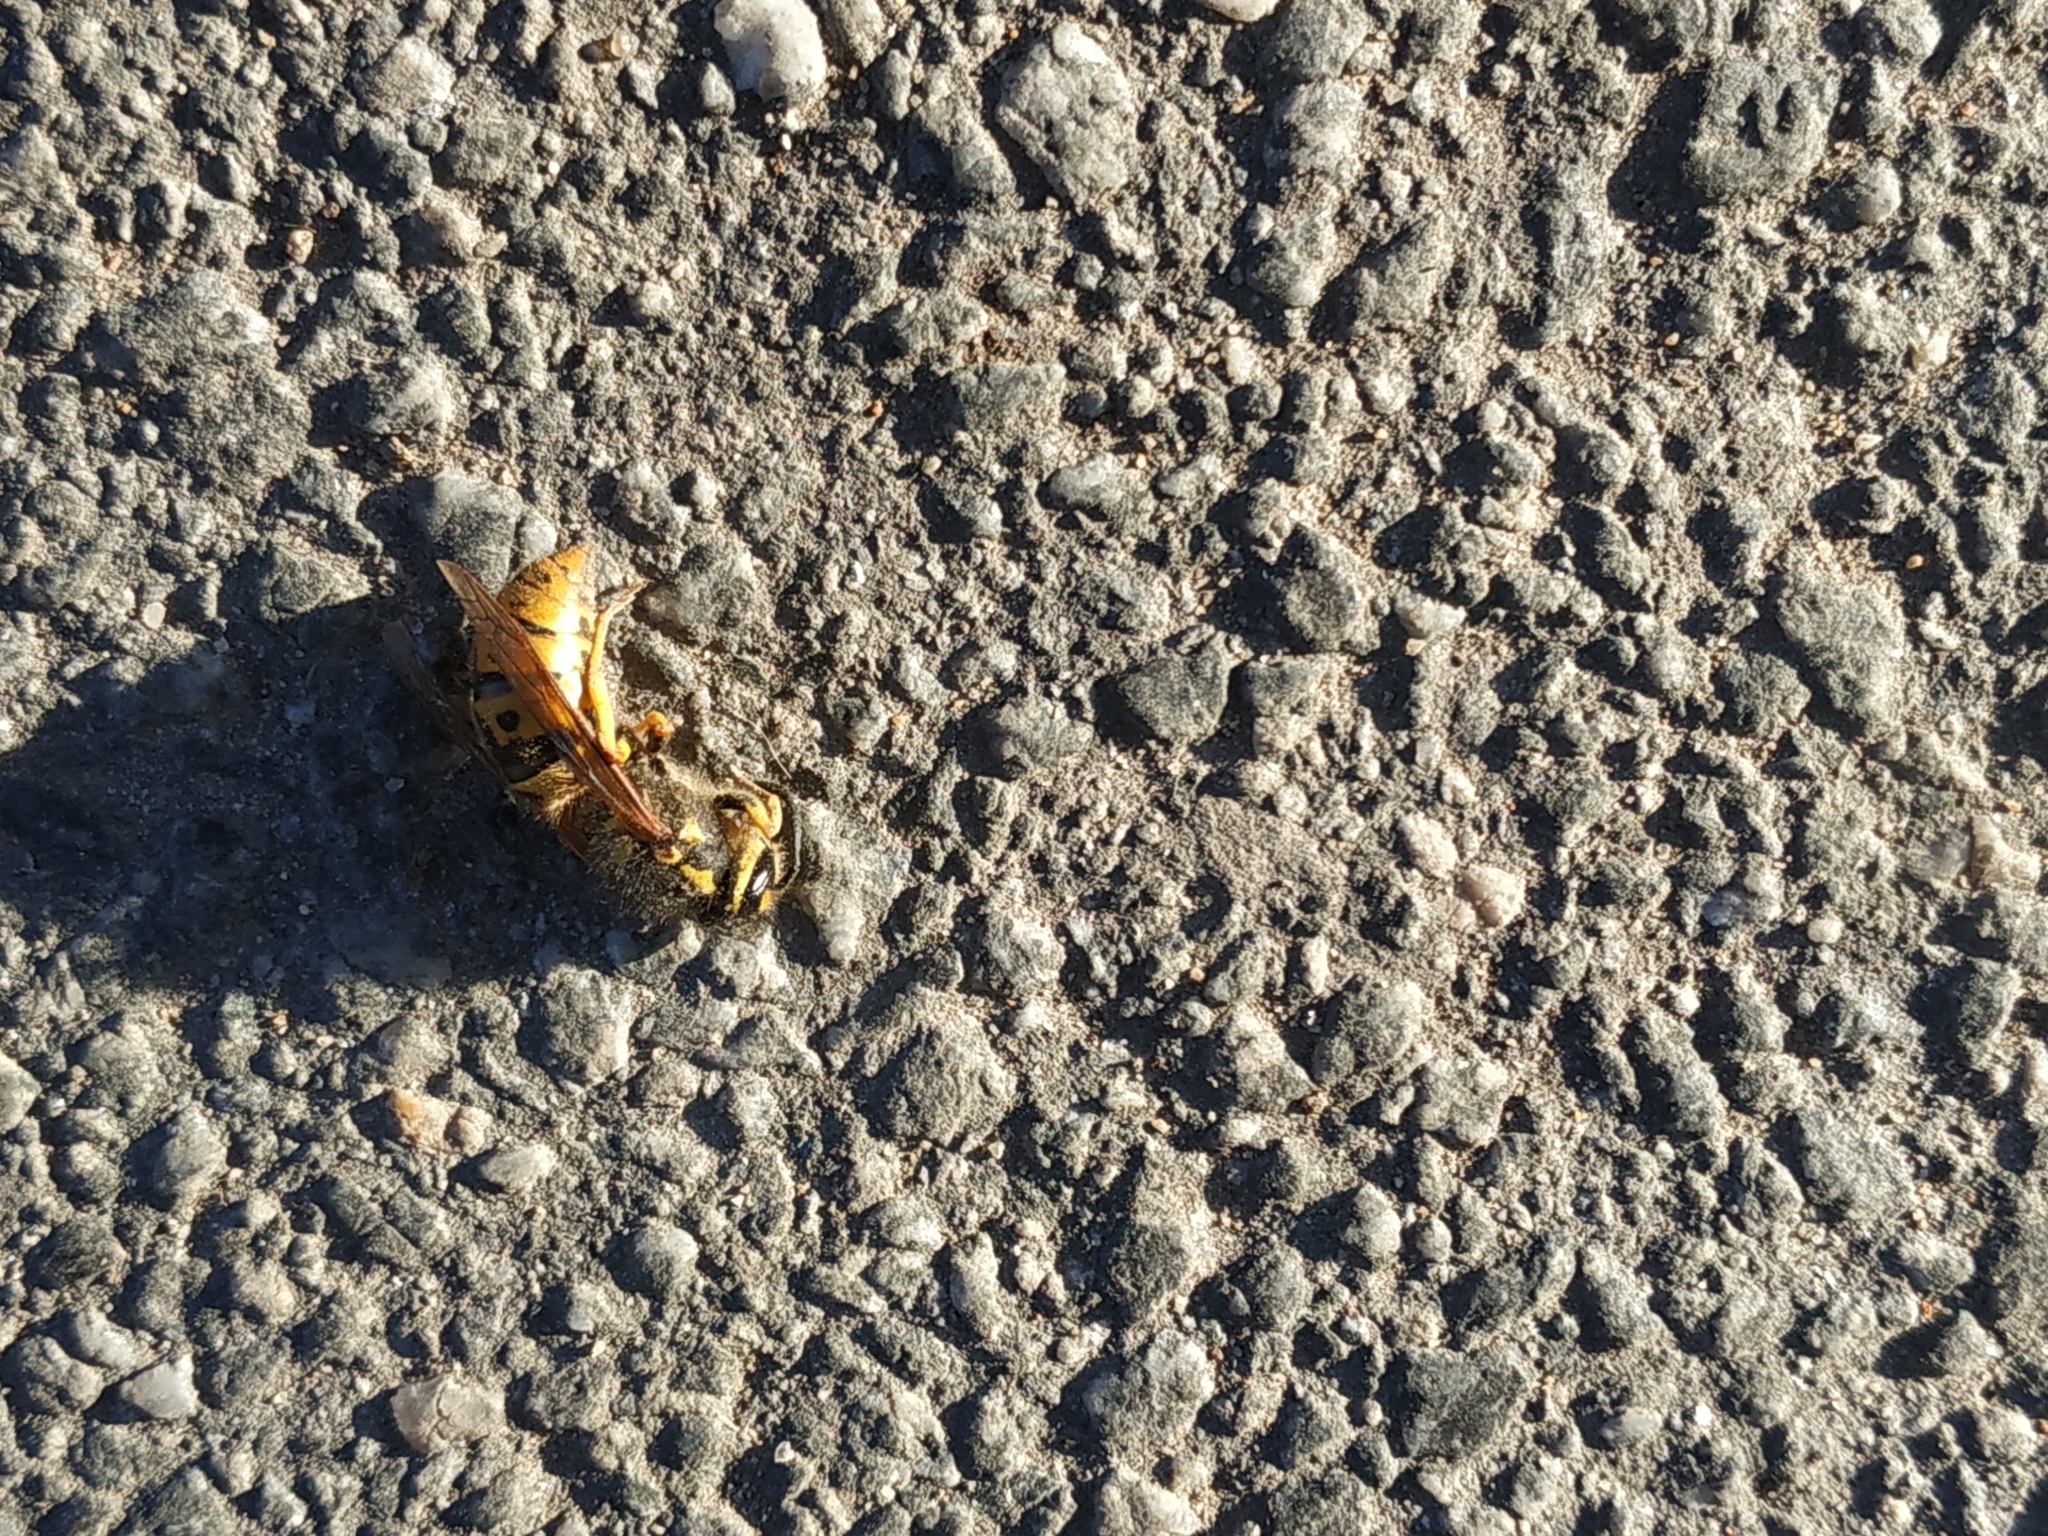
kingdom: Animalia
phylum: Arthropoda
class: Insecta
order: Hymenoptera
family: Vespidae
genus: Vespula
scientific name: Vespula germanica
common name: German wasp
